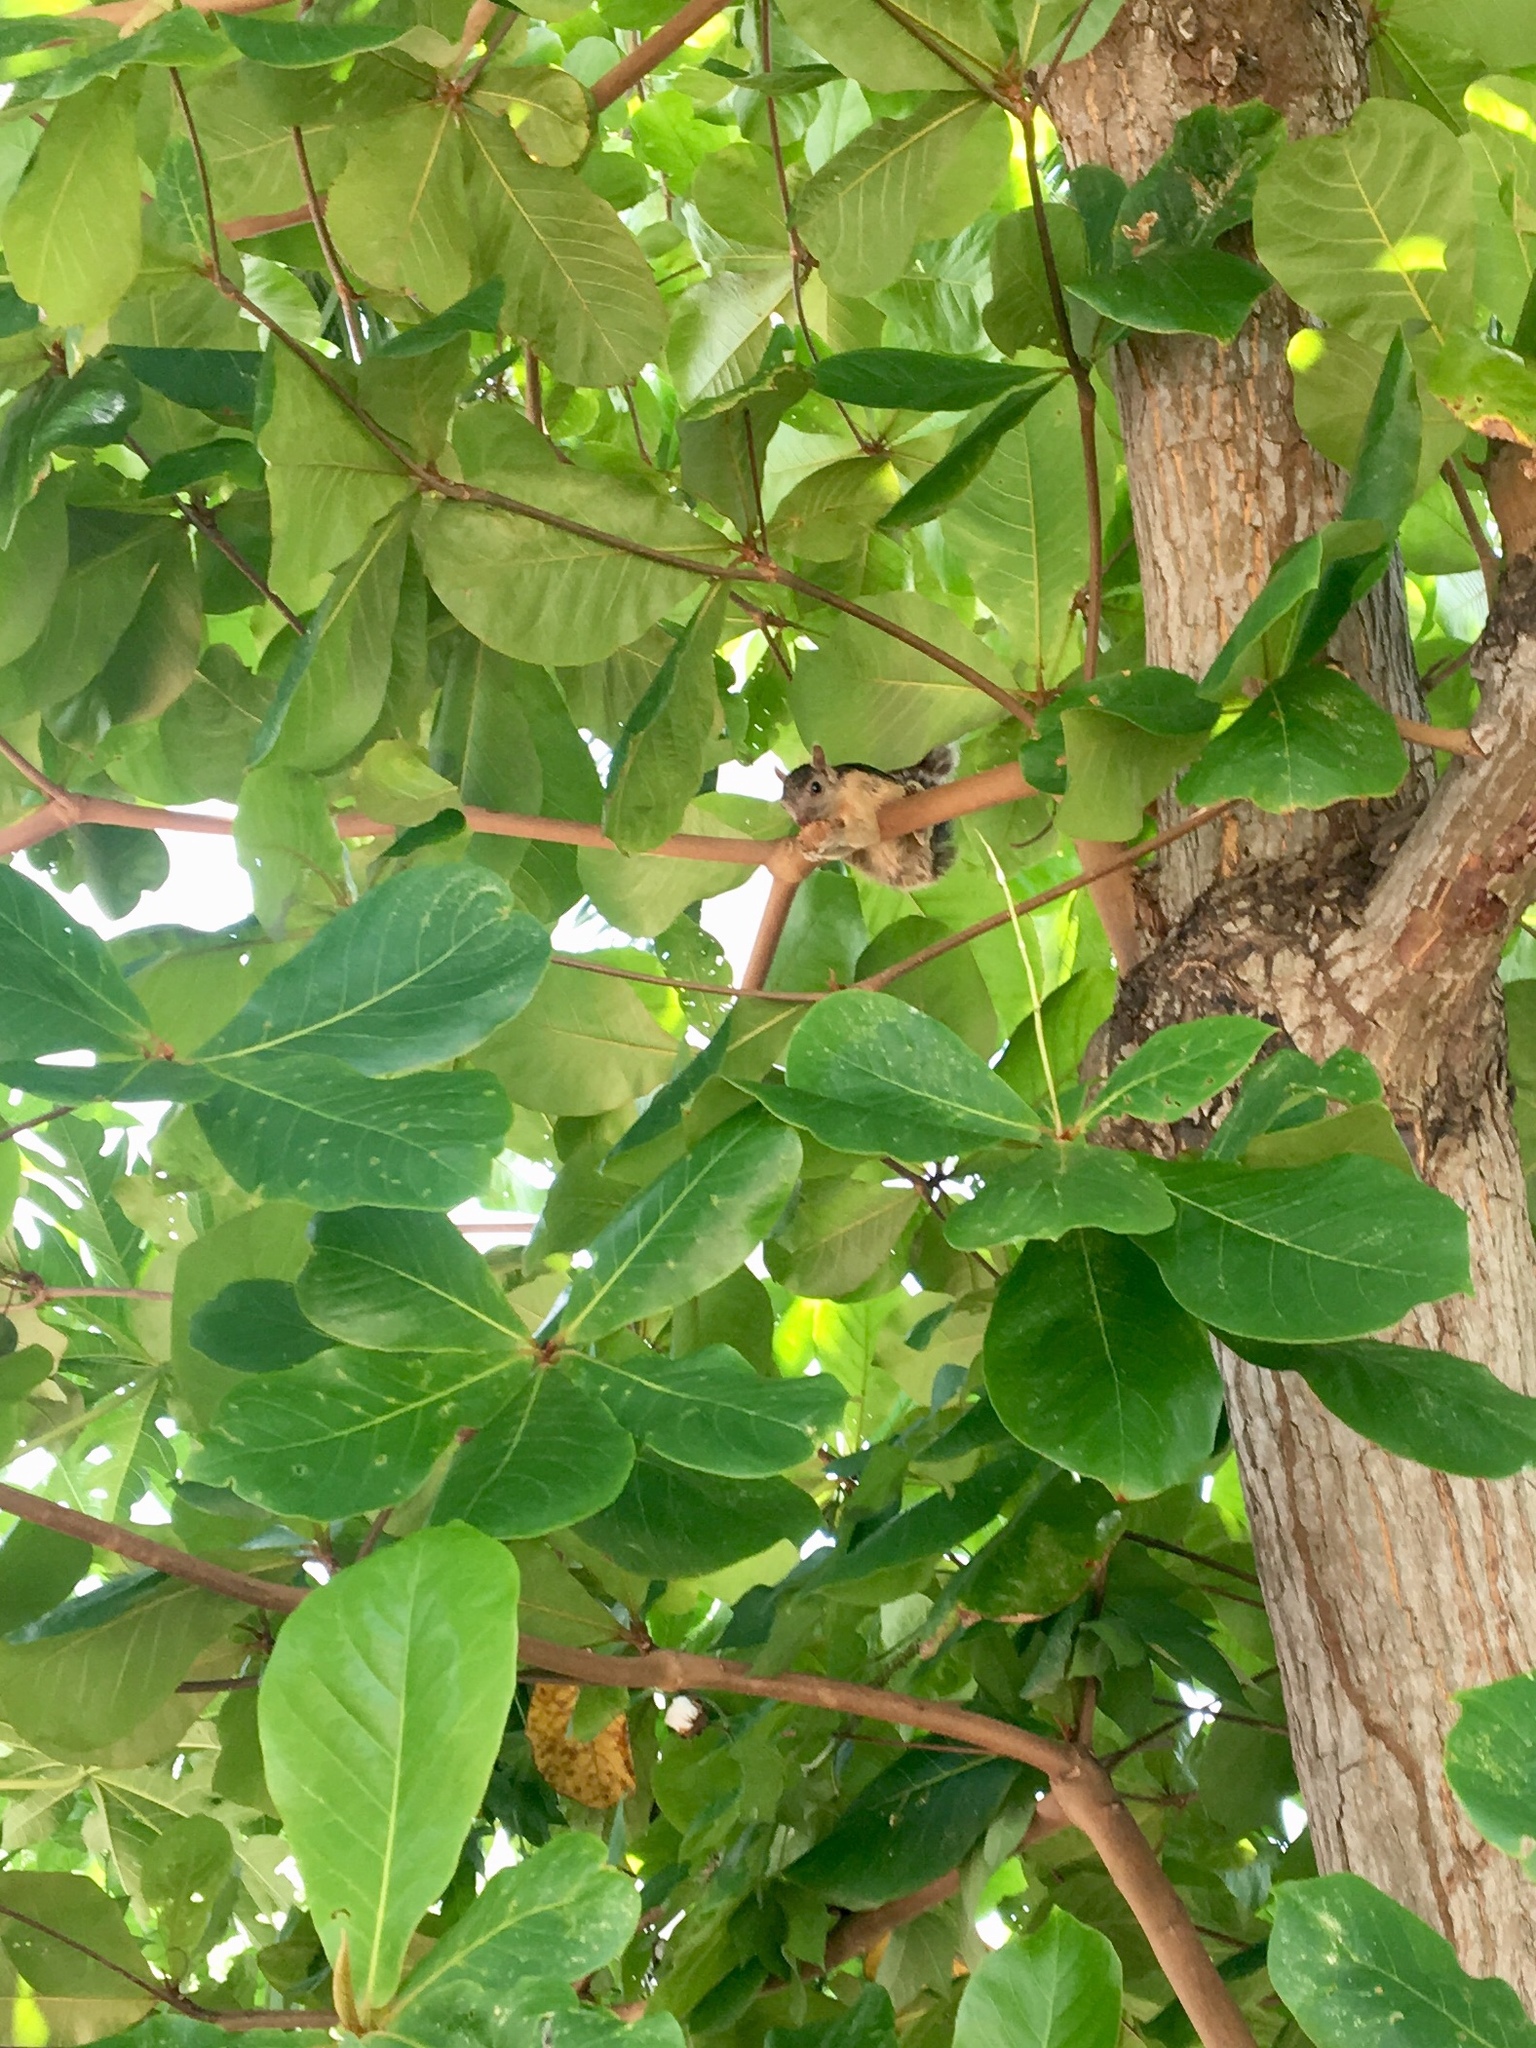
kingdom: Animalia
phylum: Chordata
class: Mammalia
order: Rodentia
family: Sciuridae
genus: Sciurus
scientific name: Sciurus variegatoides
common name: Variegated squirrel
